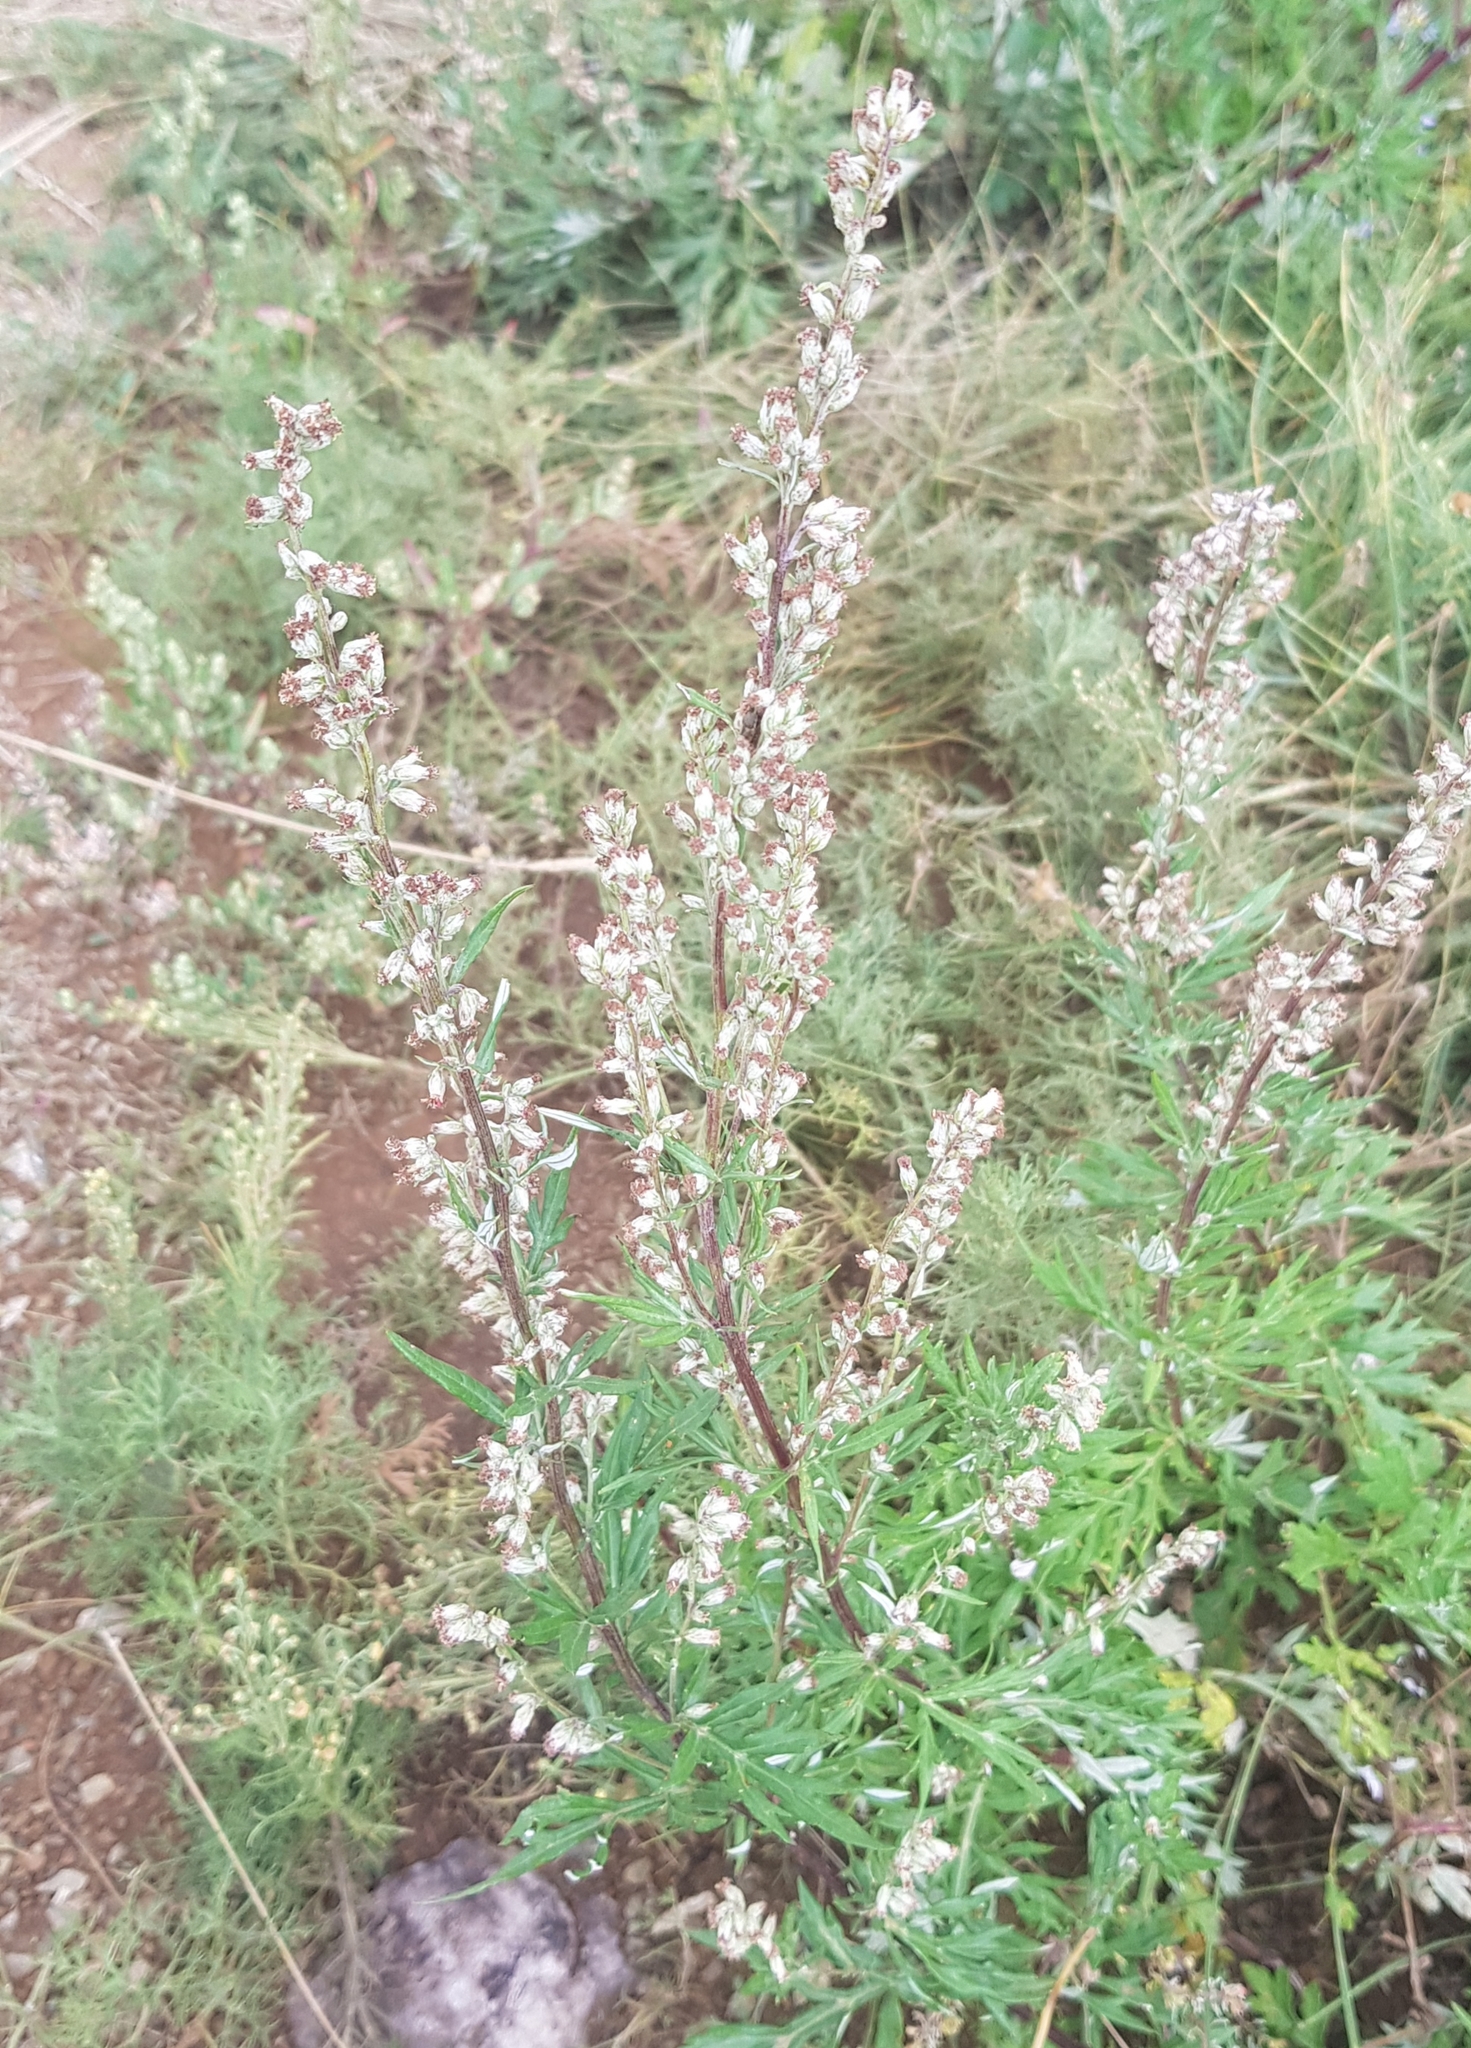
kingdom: Plantae
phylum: Tracheophyta
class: Magnoliopsida
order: Asterales
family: Asteraceae
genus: Artemisia
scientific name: Artemisia mongolica
